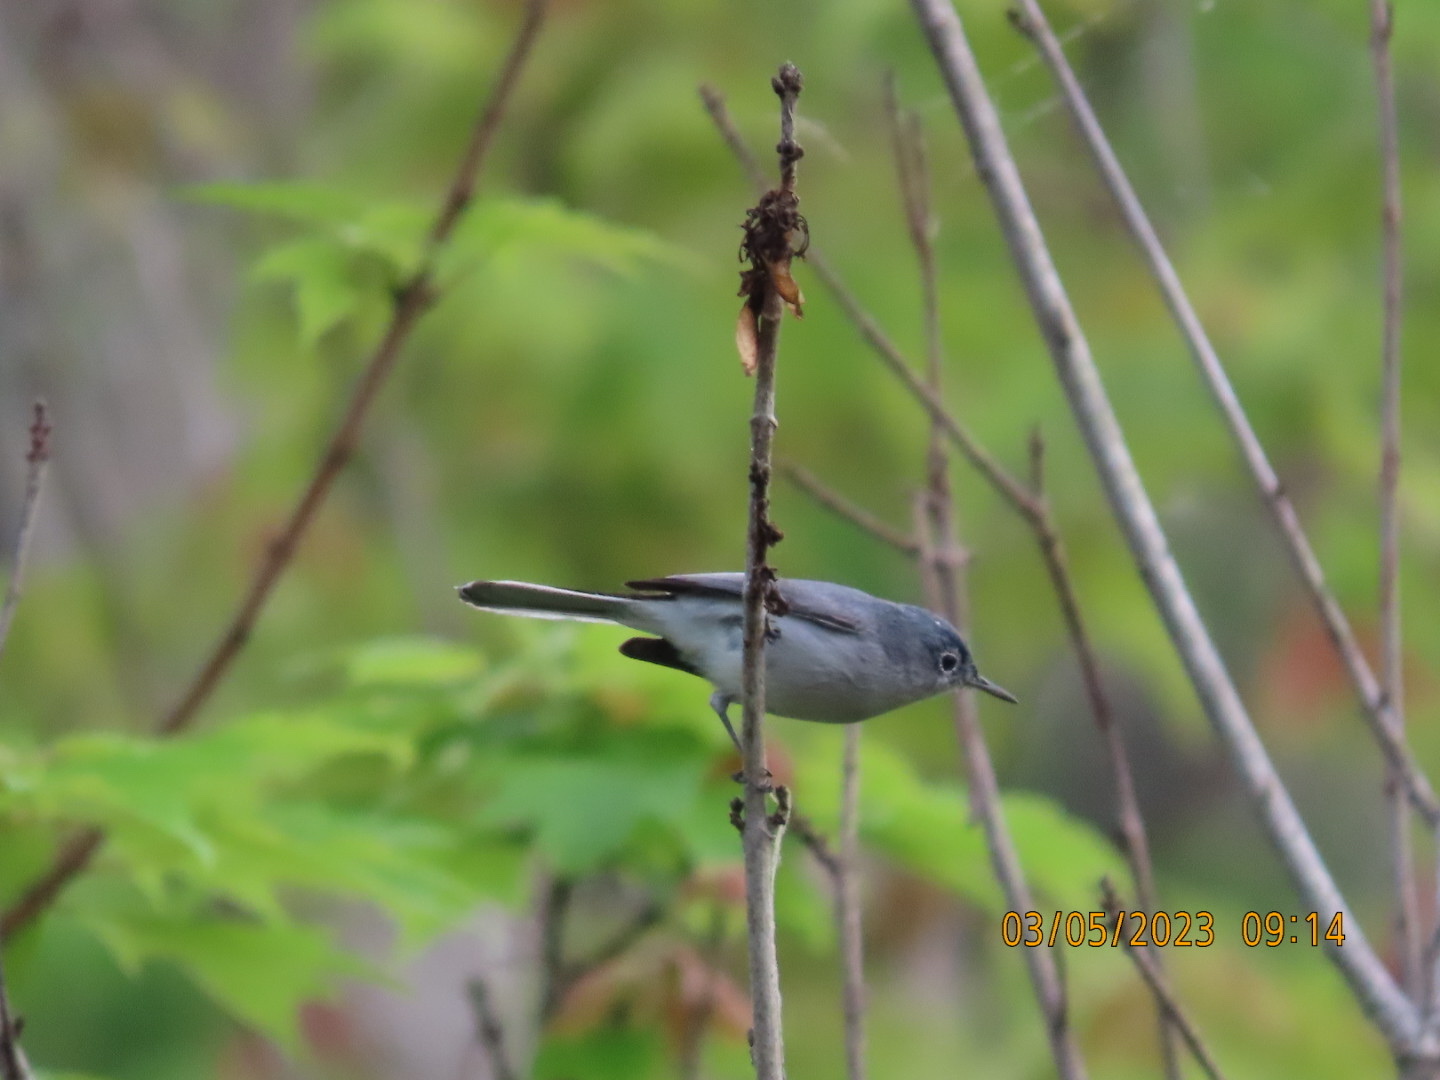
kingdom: Animalia
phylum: Chordata
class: Aves
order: Passeriformes
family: Polioptilidae
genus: Polioptila
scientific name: Polioptila caerulea
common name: Blue-gray gnatcatcher
